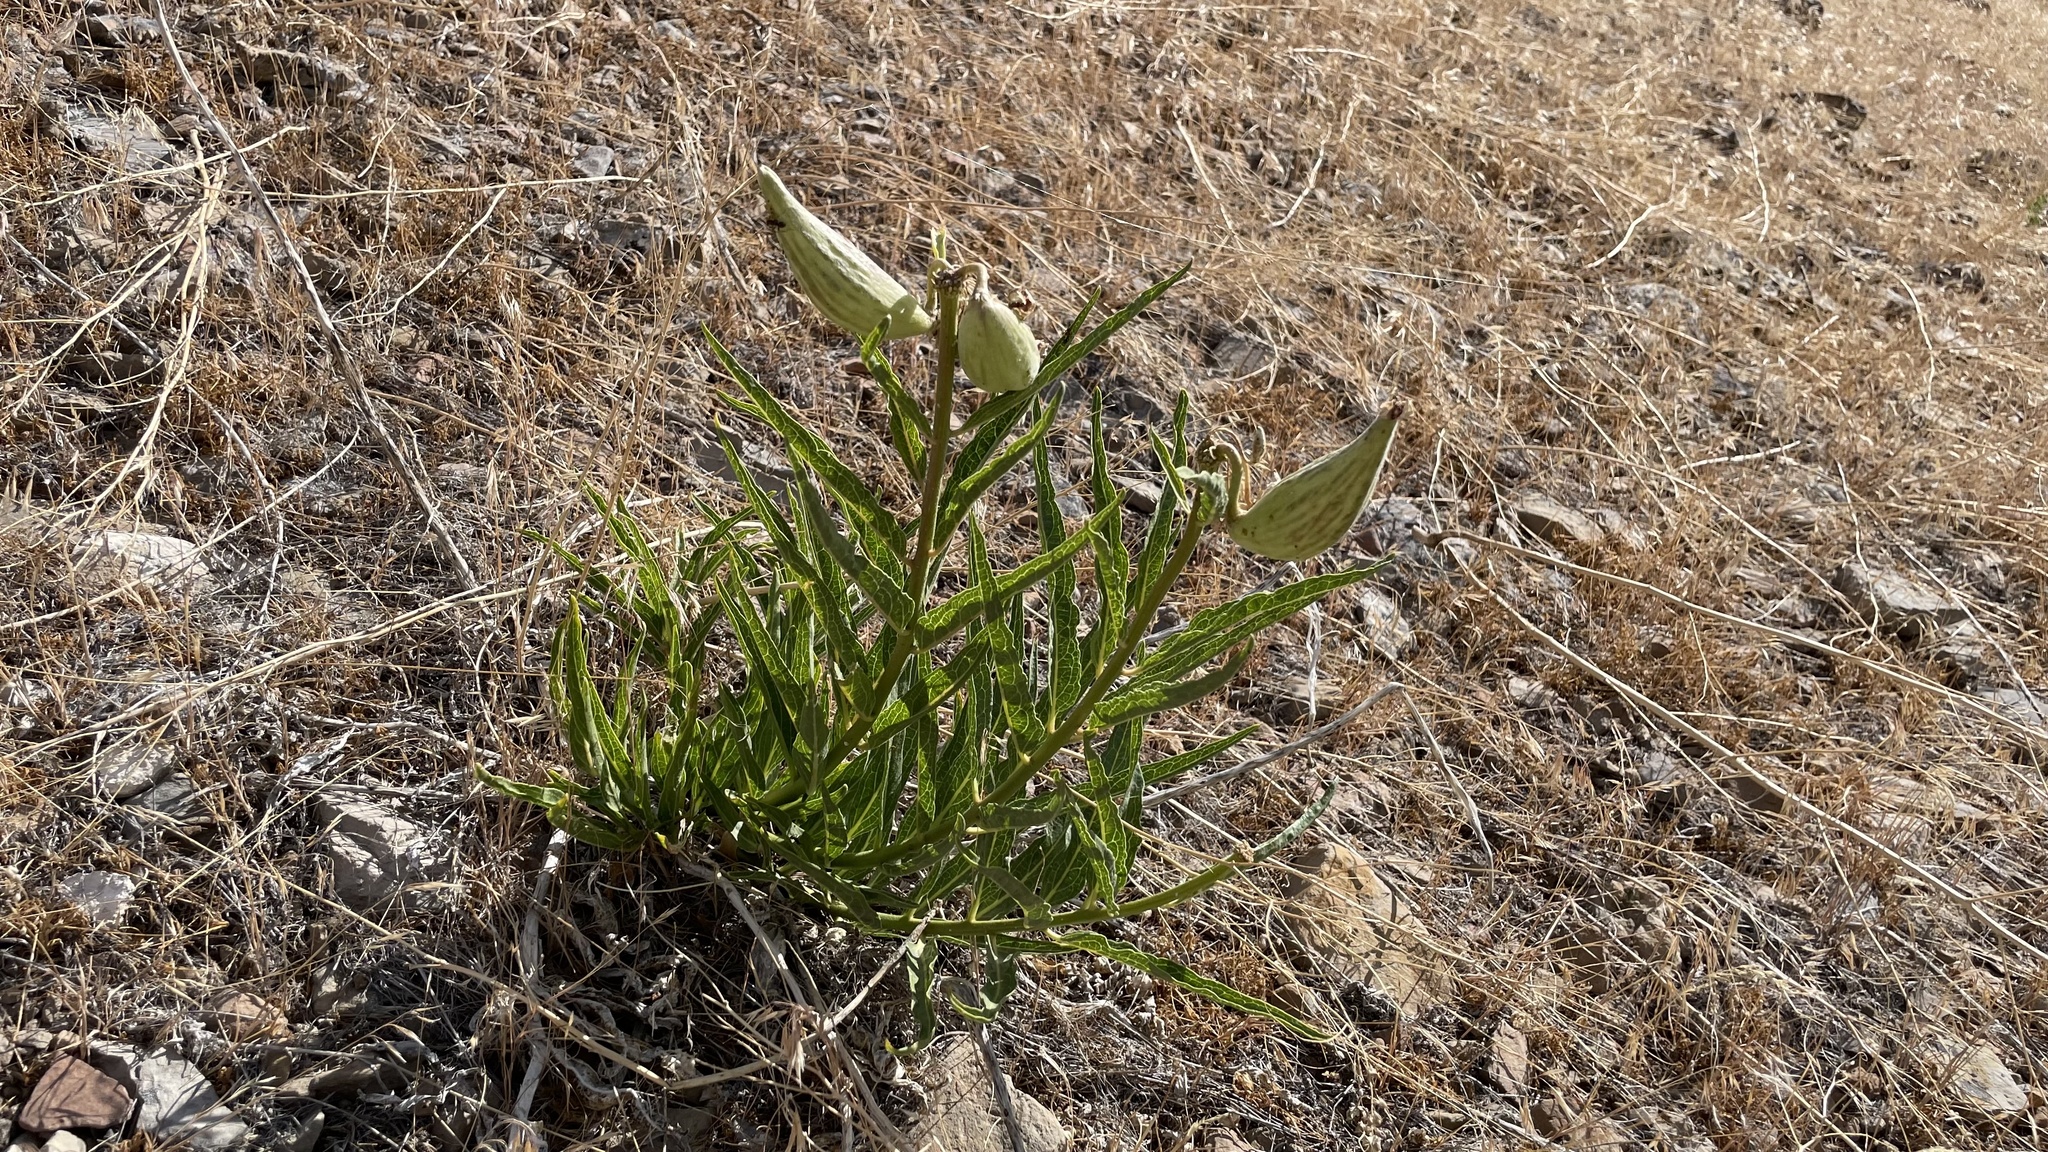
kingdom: Plantae
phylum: Tracheophyta
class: Magnoliopsida
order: Gentianales
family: Apocynaceae
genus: Asclepias
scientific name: Asclepias asperula
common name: Antelope horns
